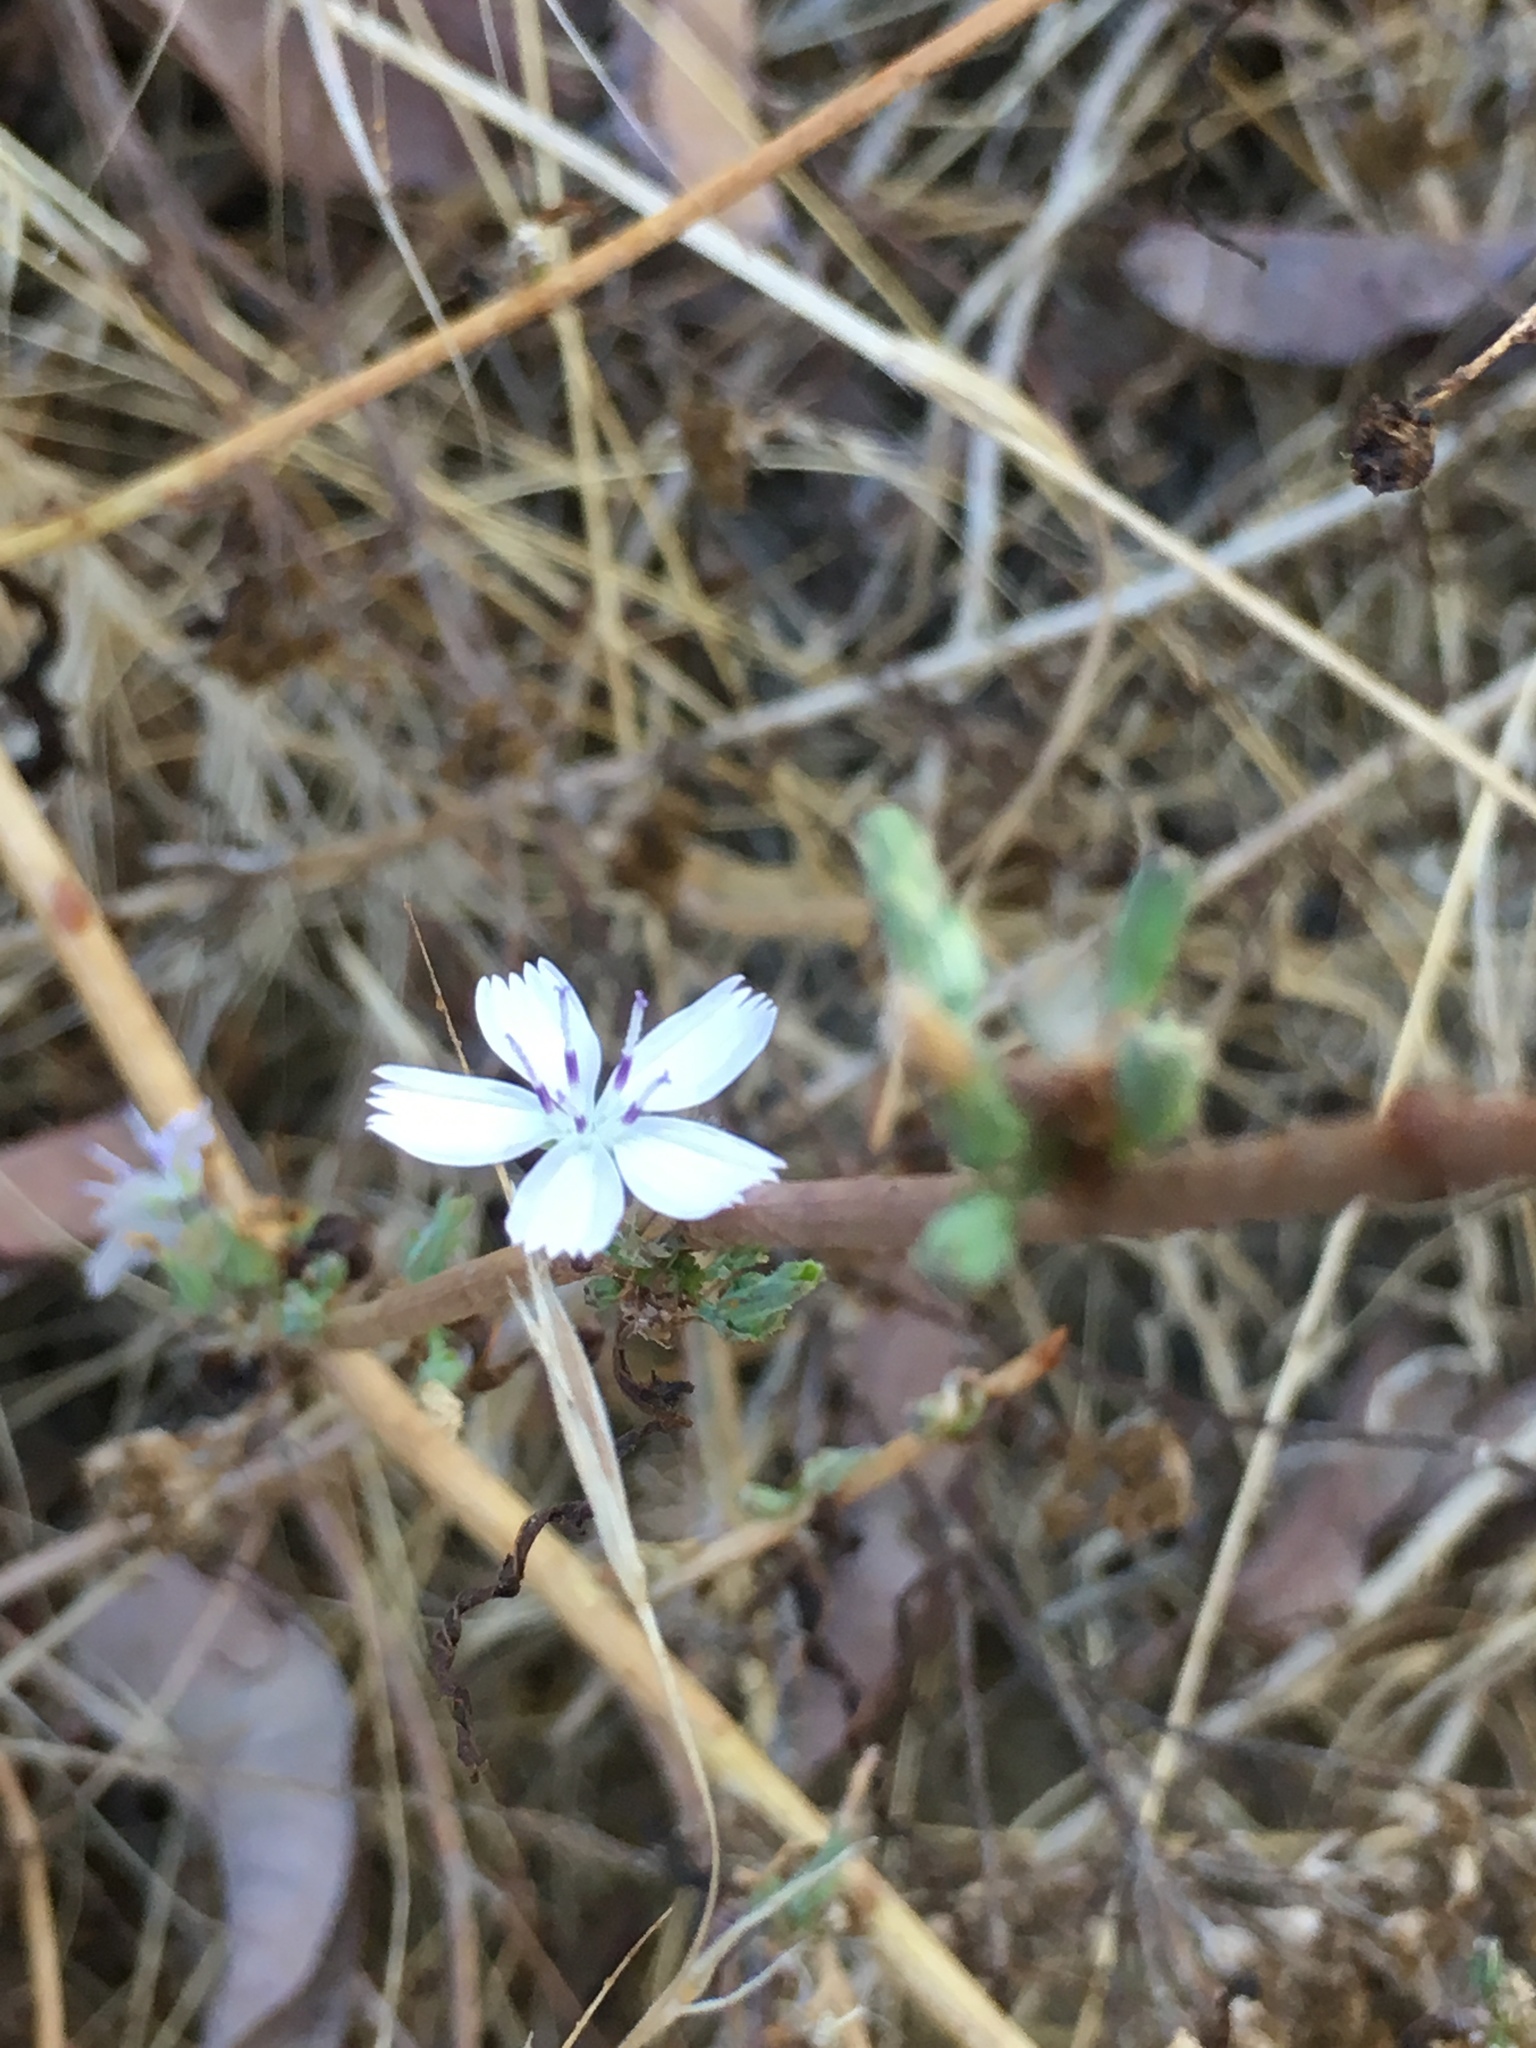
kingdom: Plantae
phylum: Tracheophyta
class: Magnoliopsida
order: Asterales
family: Asteraceae
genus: Stephanomeria
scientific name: Stephanomeria diegensis
